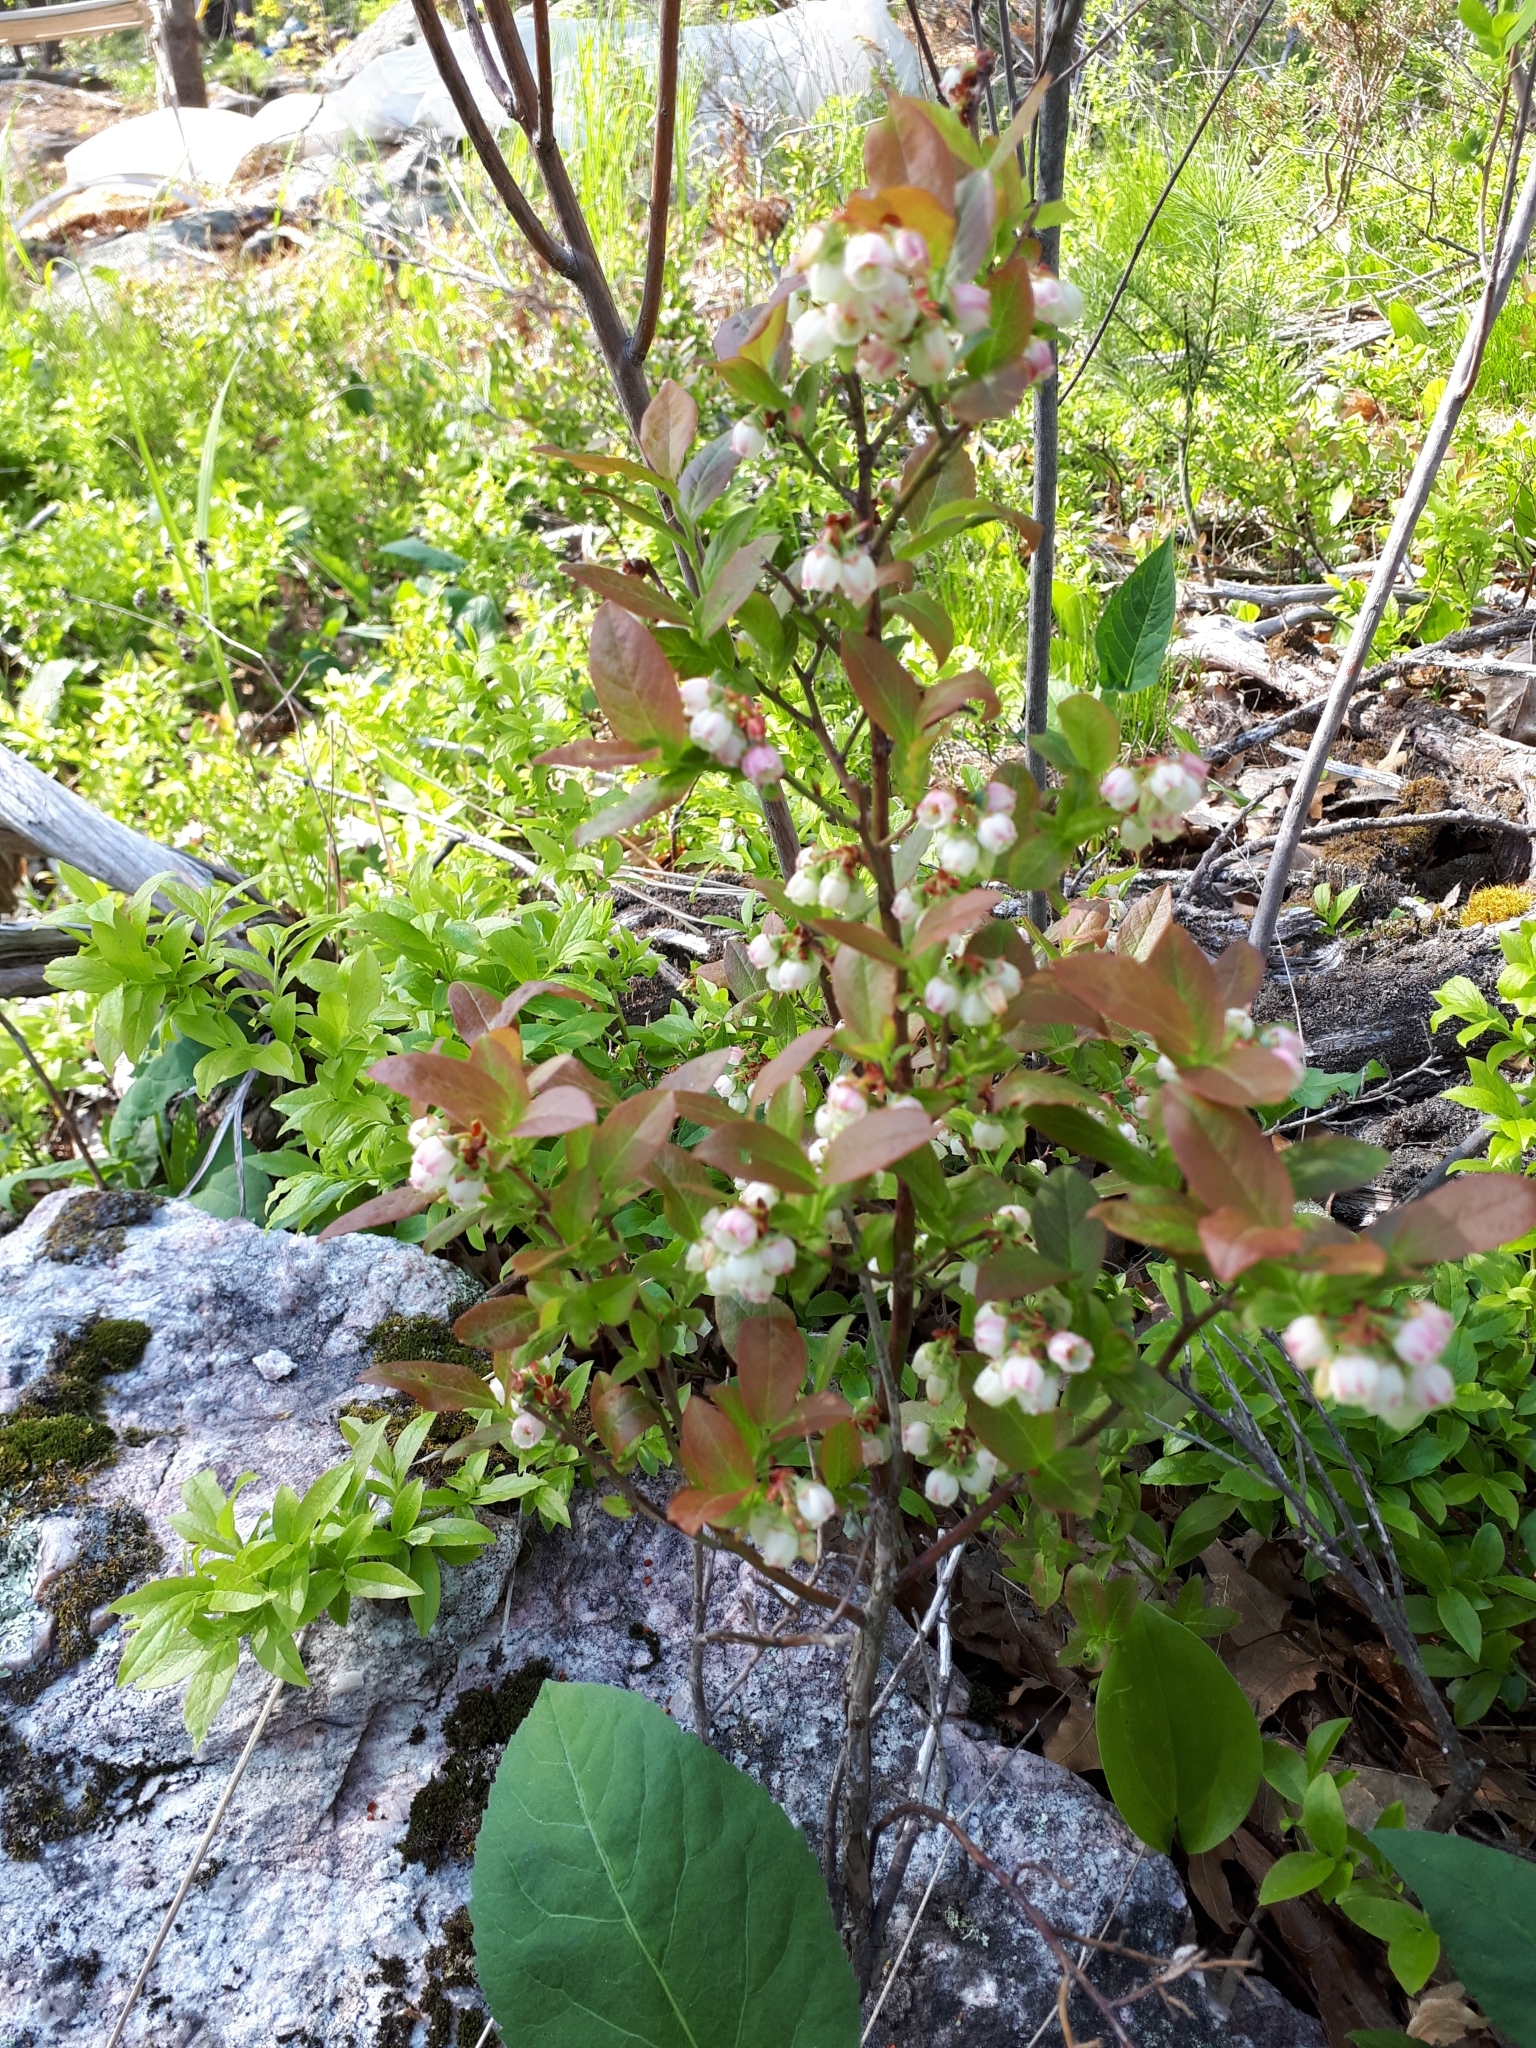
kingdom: Plantae
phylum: Tracheophyta
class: Magnoliopsida
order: Ericales
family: Ericaceae
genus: Vaccinium
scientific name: Vaccinium angustifolium
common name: Early lowbush blueberry
